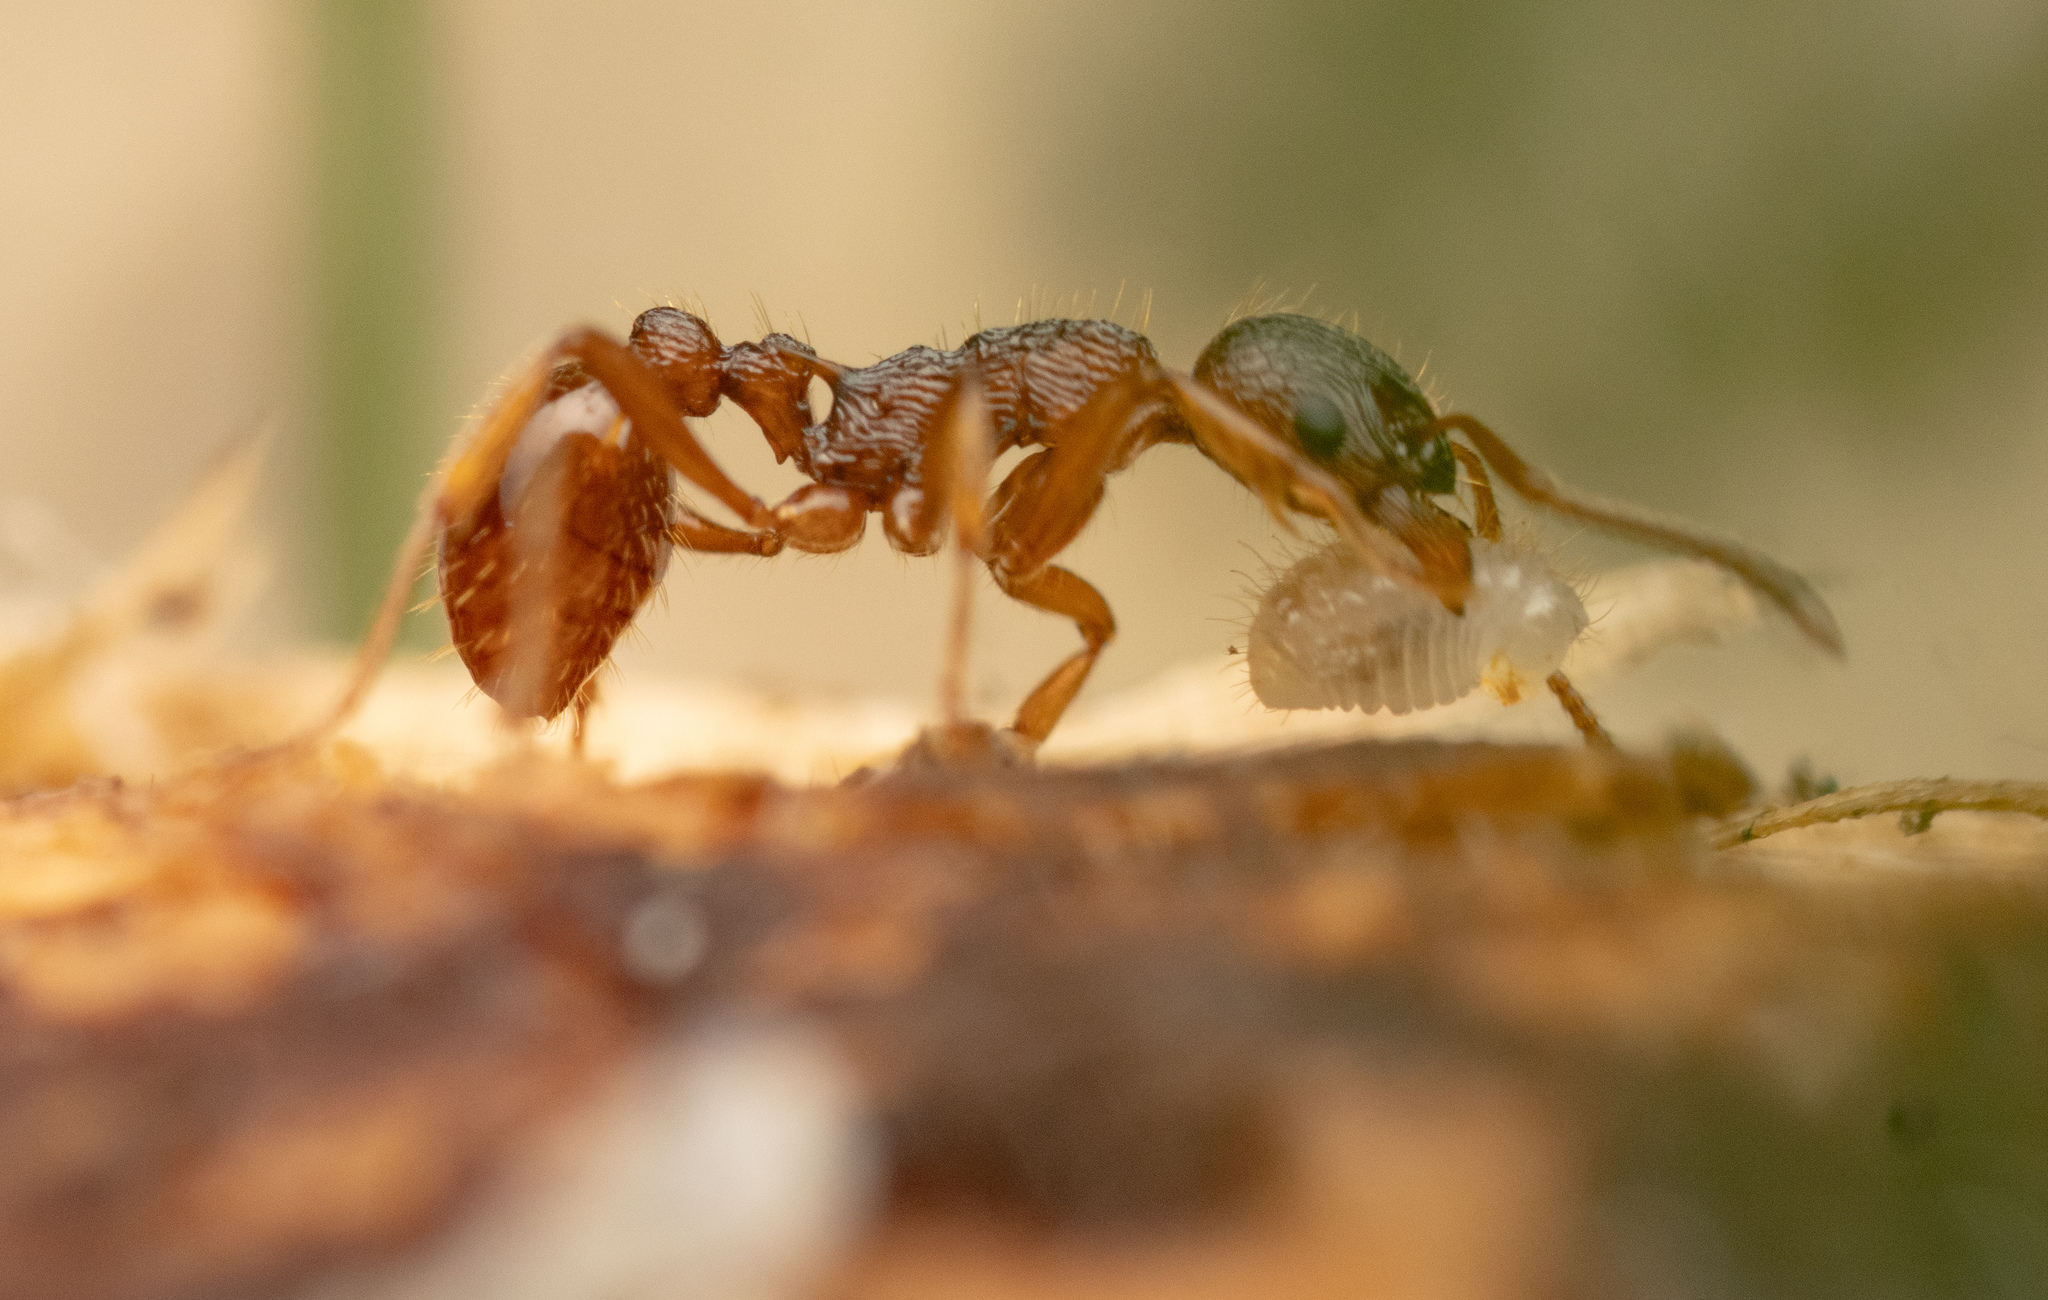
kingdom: Animalia
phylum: Arthropoda
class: Insecta
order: Hymenoptera
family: Formicidae
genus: Myrmica
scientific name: Myrmica ruginodis
